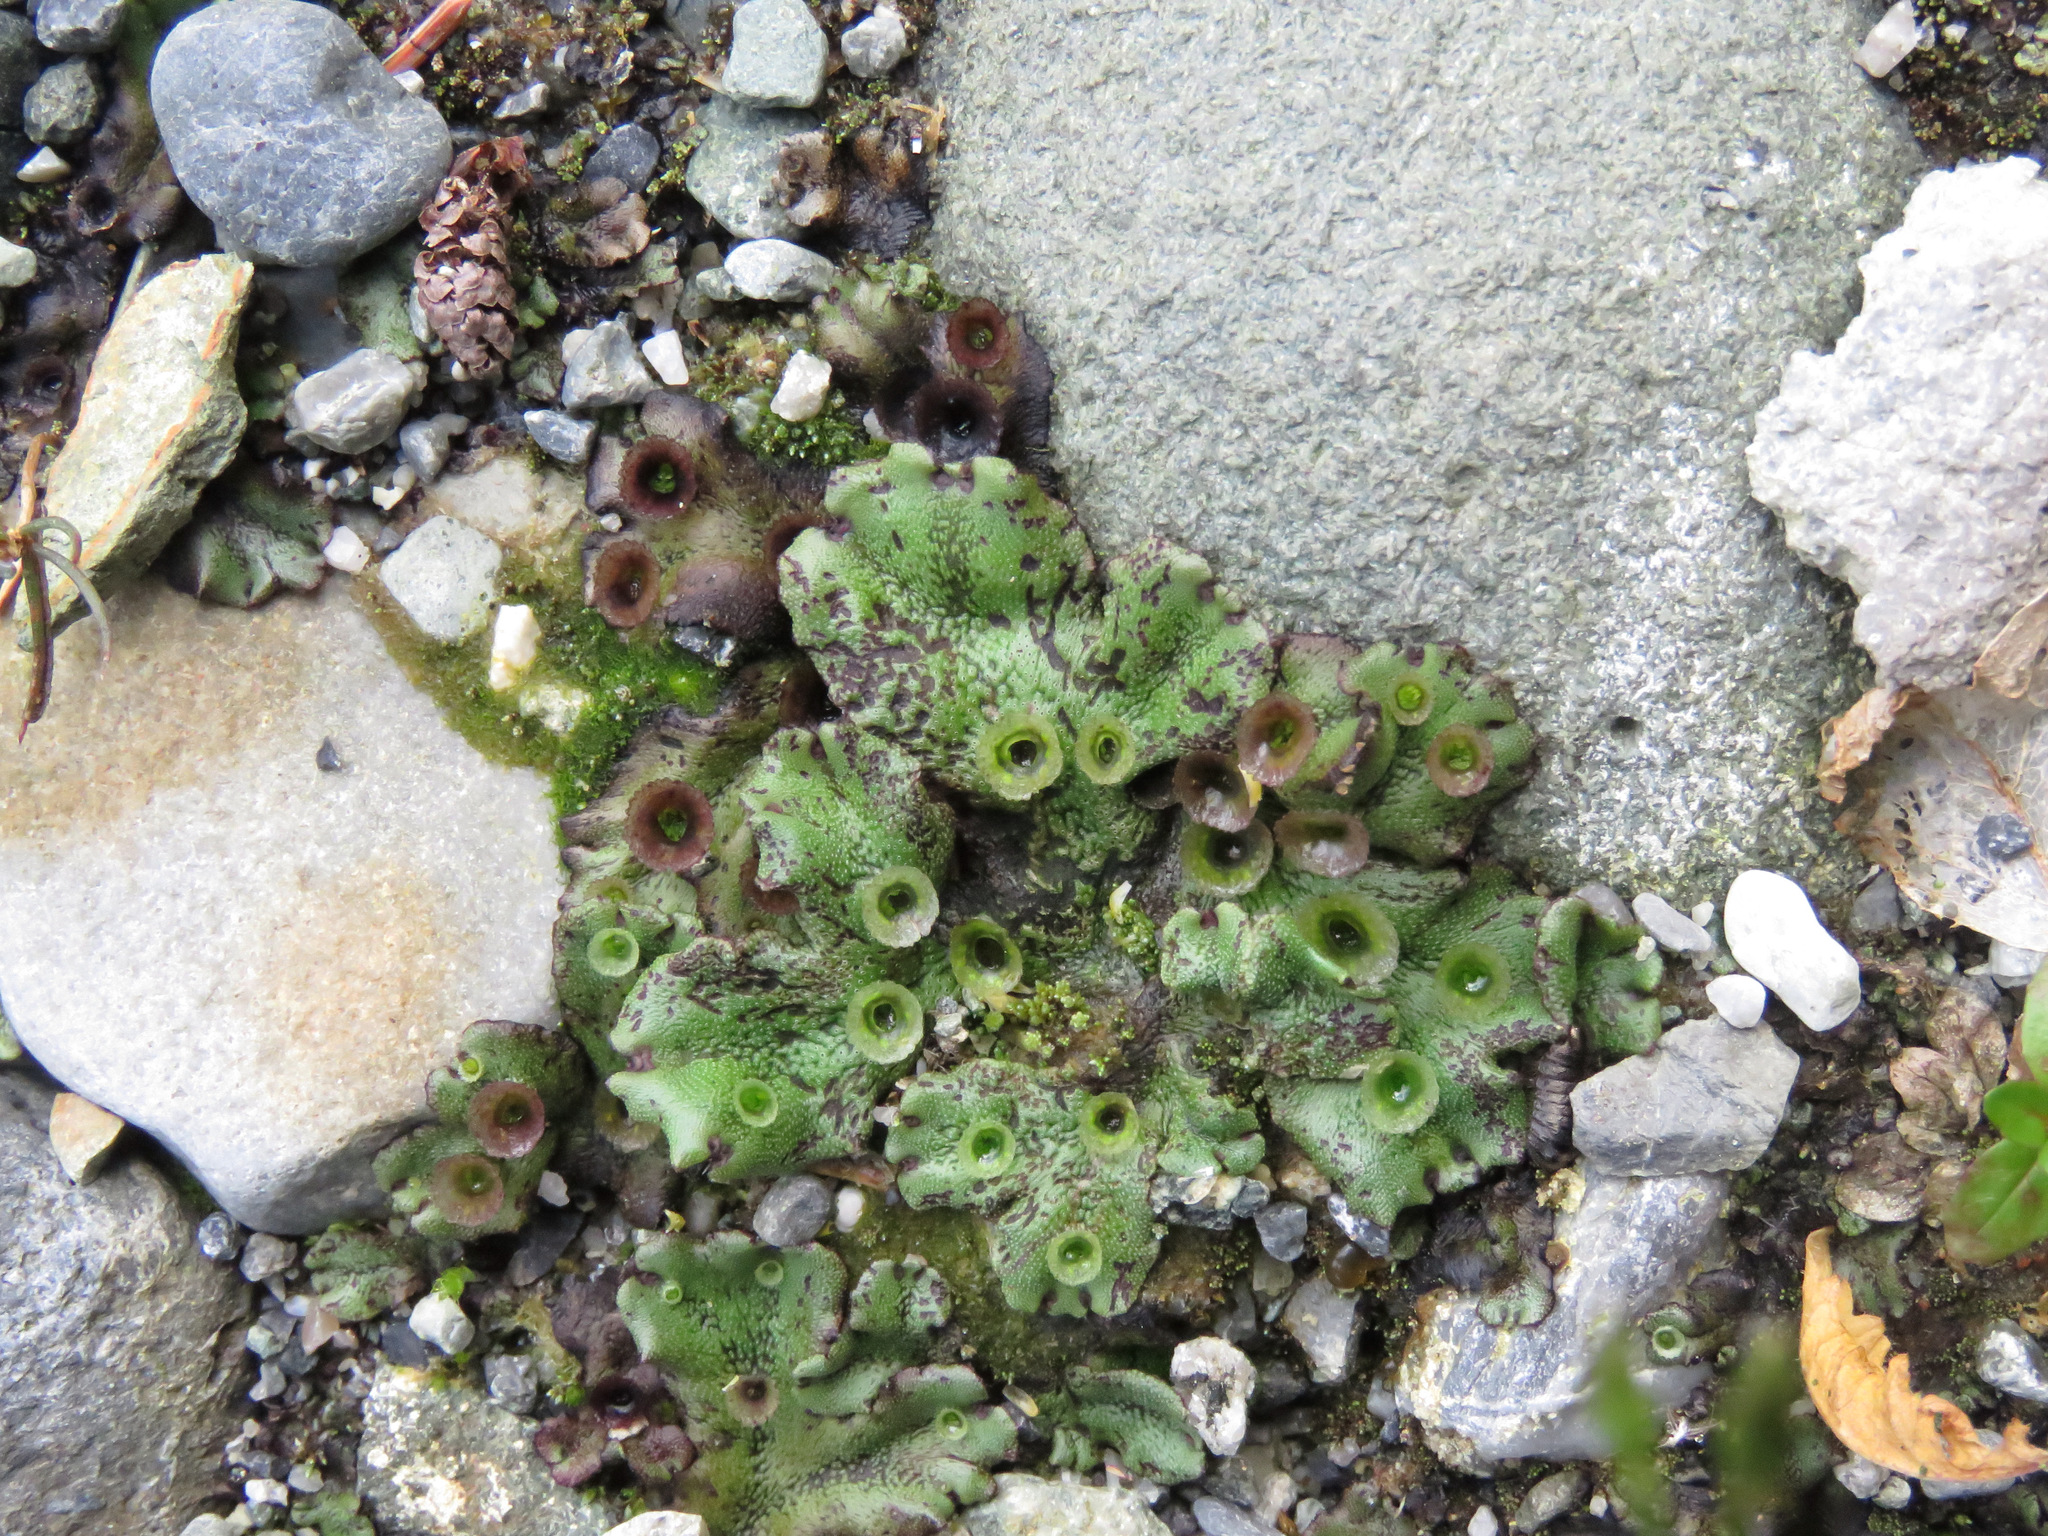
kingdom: Plantae
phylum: Marchantiophyta
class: Marchantiopsida
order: Marchantiales
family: Marchantiaceae
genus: Marchantia
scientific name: Marchantia polymorpha
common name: Common liverwort
